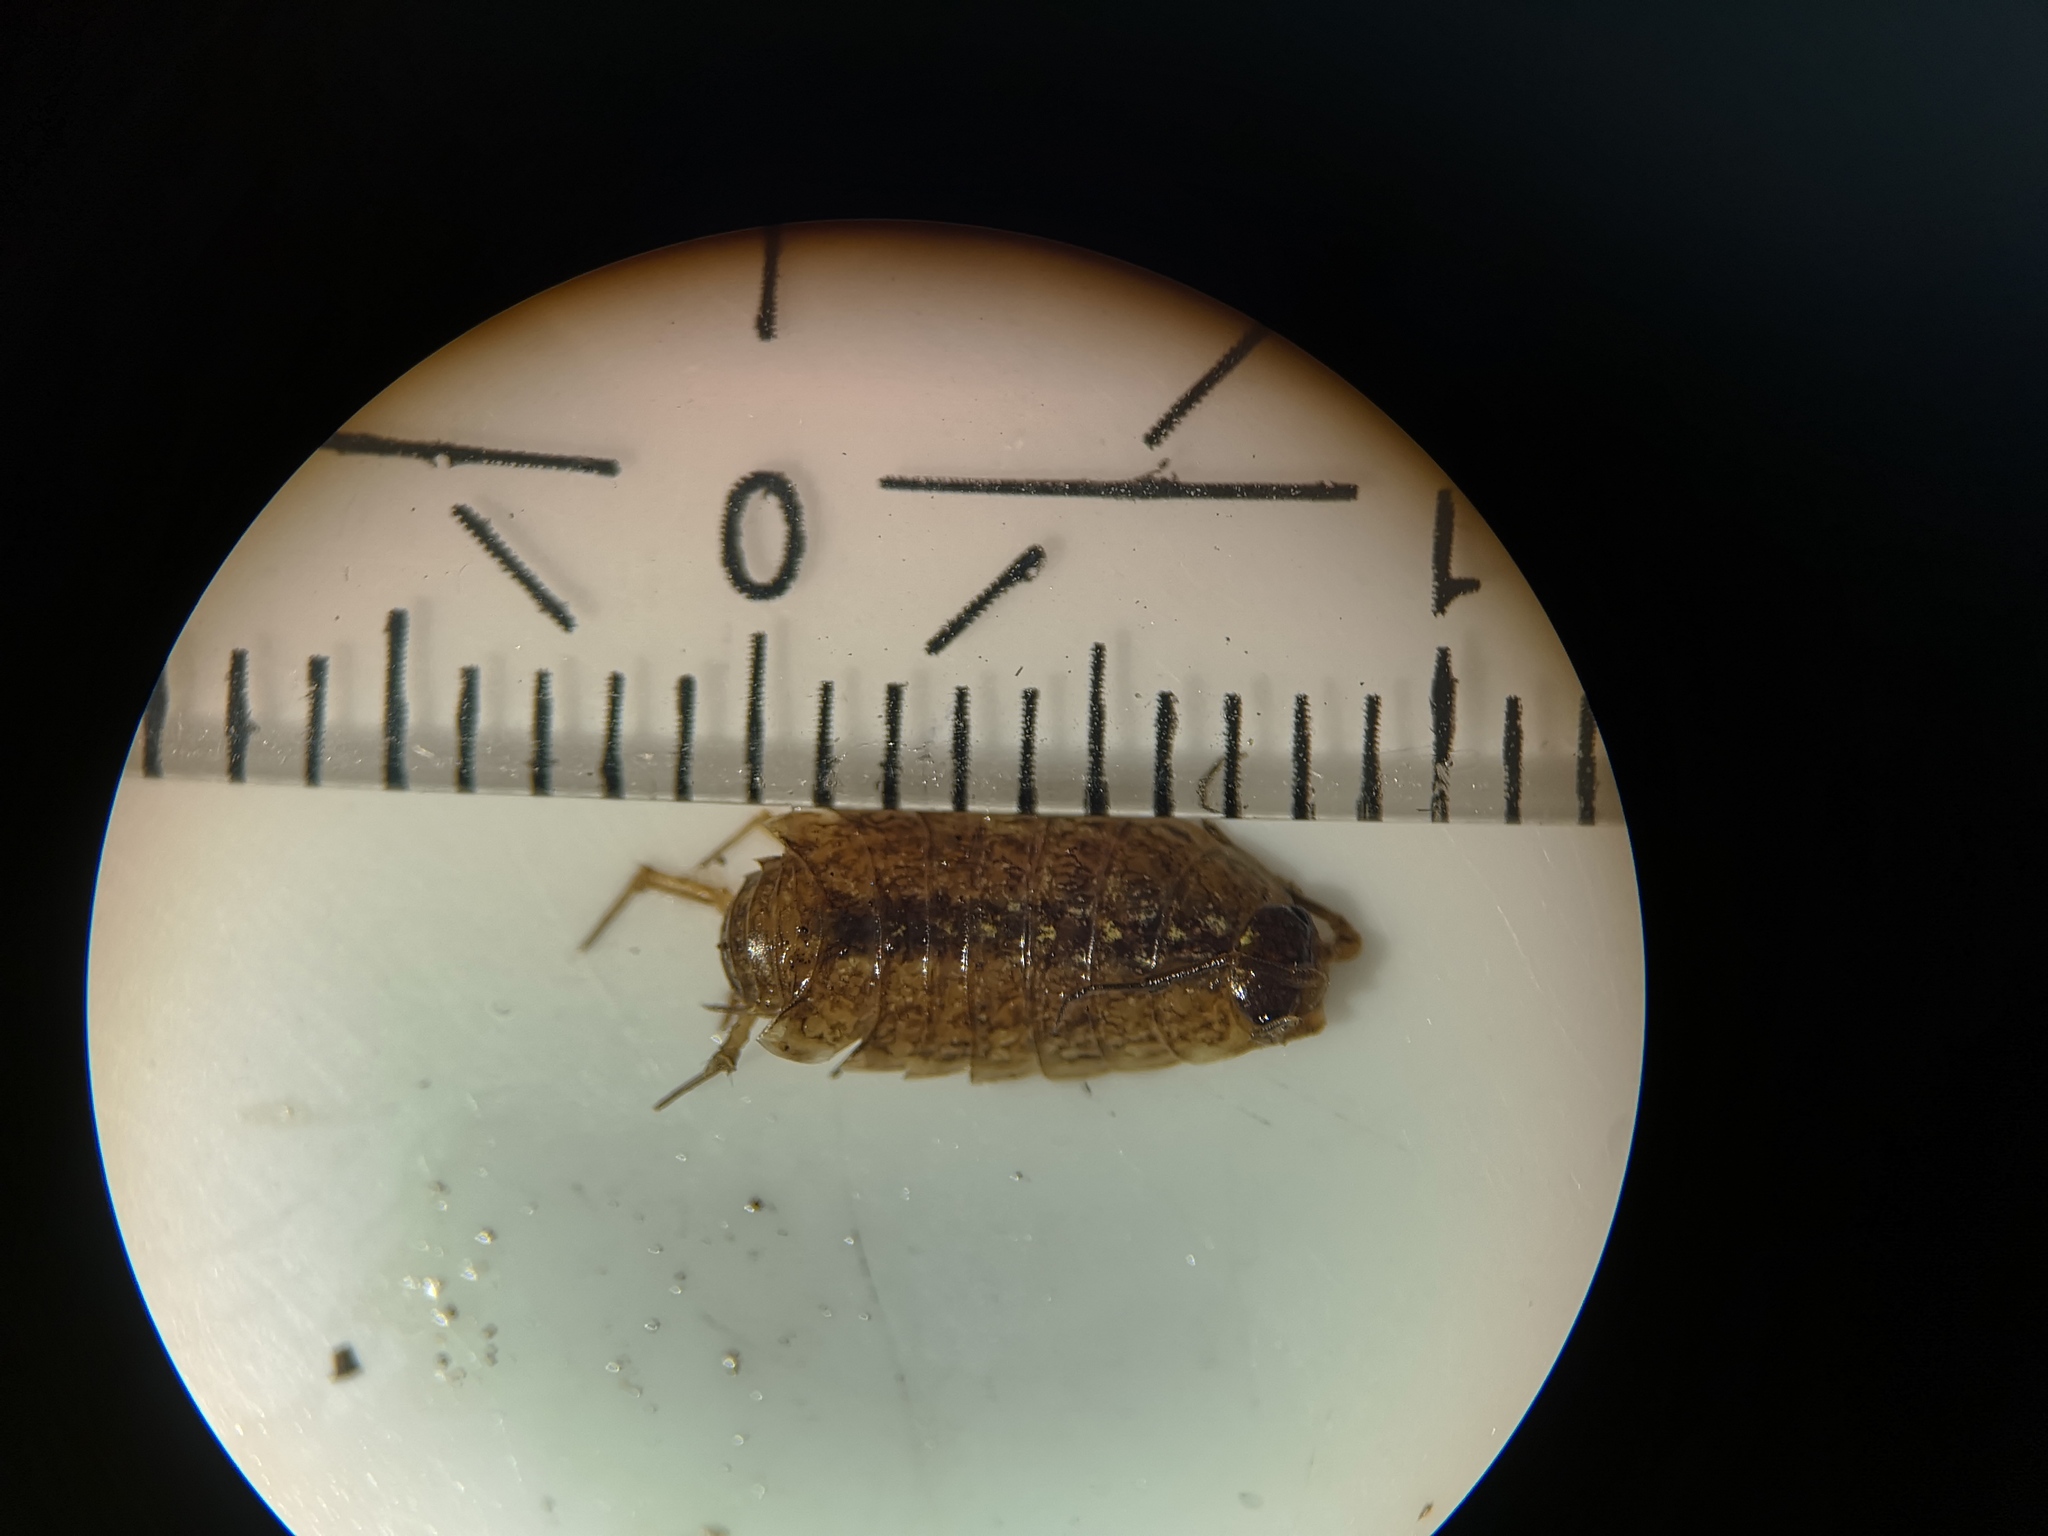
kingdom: Animalia
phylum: Arthropoda
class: Malacostraca
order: Isopoda
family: Philosciidae
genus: Philoscia
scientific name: Philoscia muscorum
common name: Common striped woodlouse
